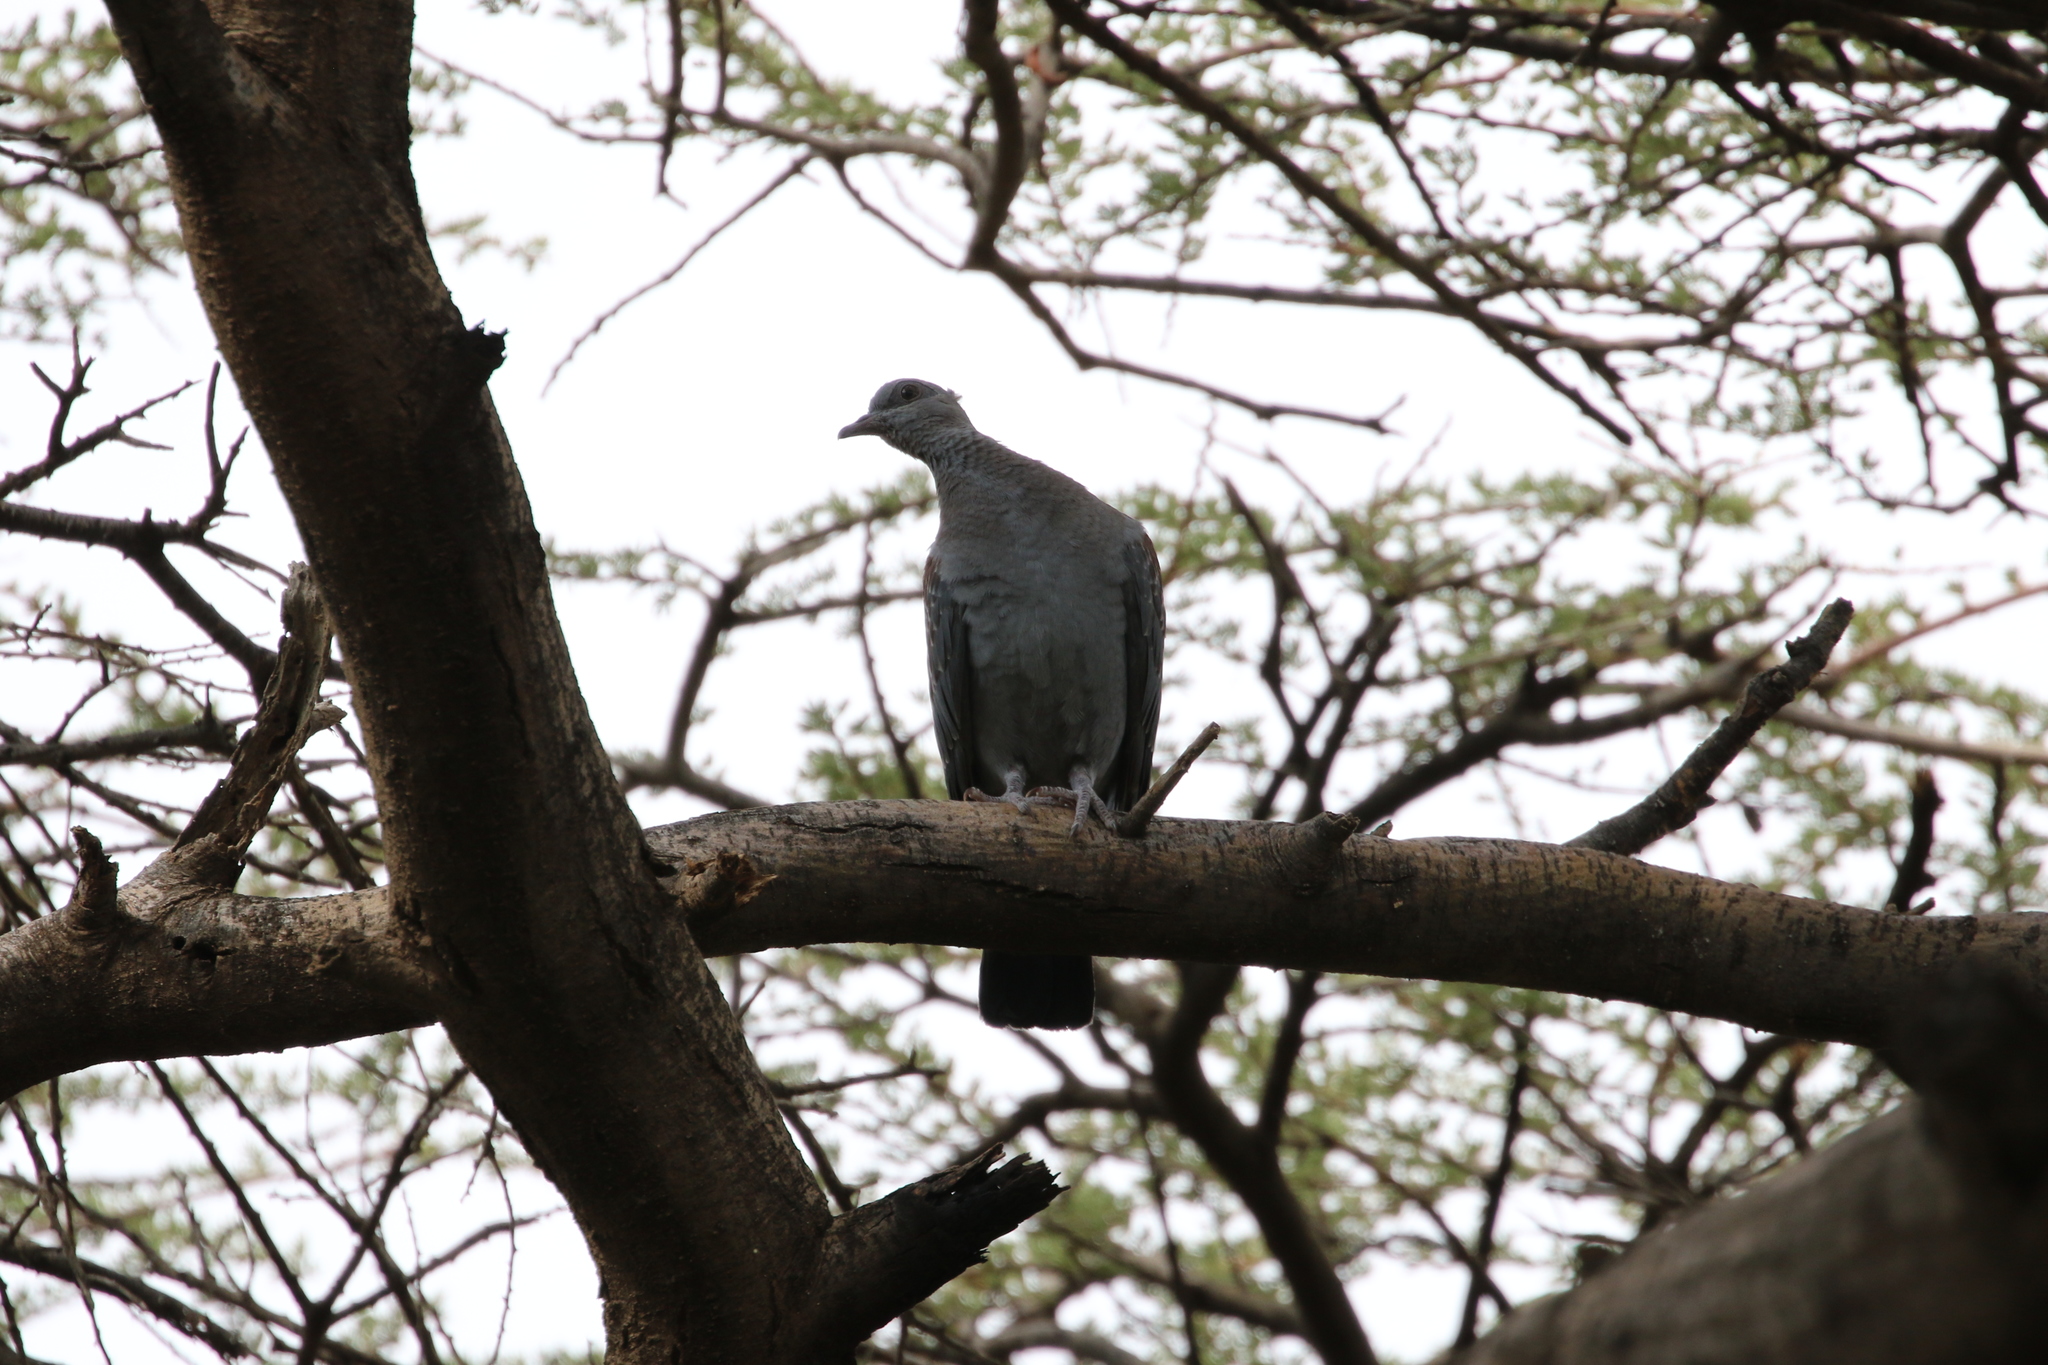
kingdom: Animalia
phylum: Chordata
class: Aves
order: Columbiformes
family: Columbidae
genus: Columba
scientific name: Columba guinea
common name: Speckled pigeon
